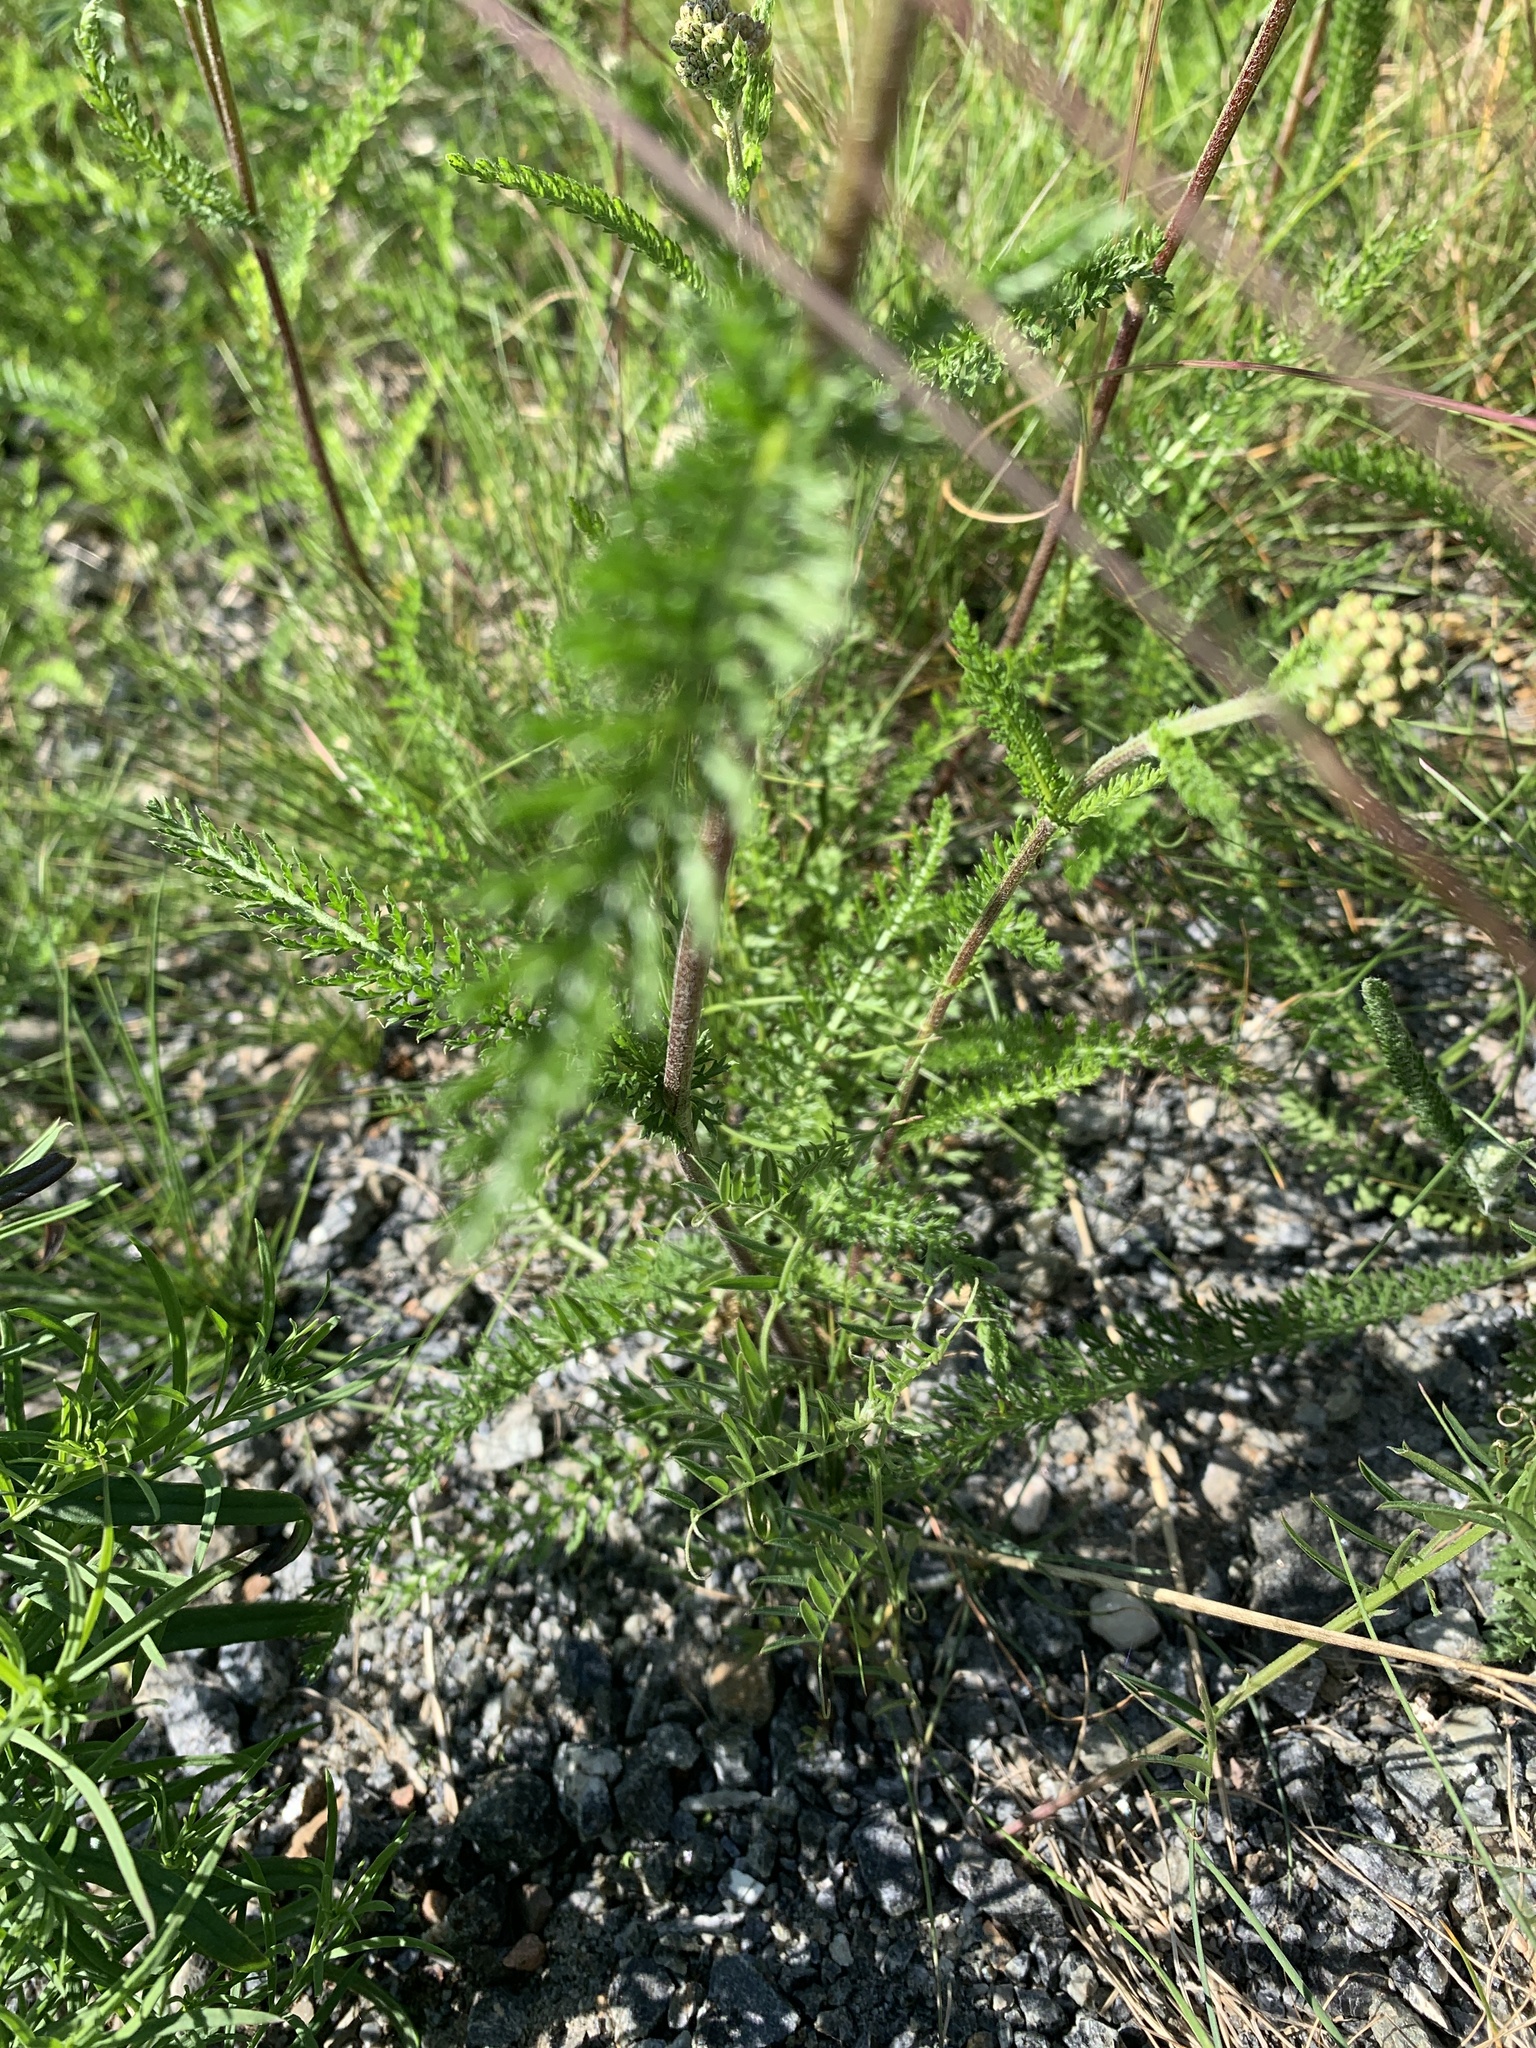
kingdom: Plantae
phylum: Tracheophyta
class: Magnoliopsida
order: Asterales
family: Asteraceae
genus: Achillea
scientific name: Achillea millefolium
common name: Yarrow
